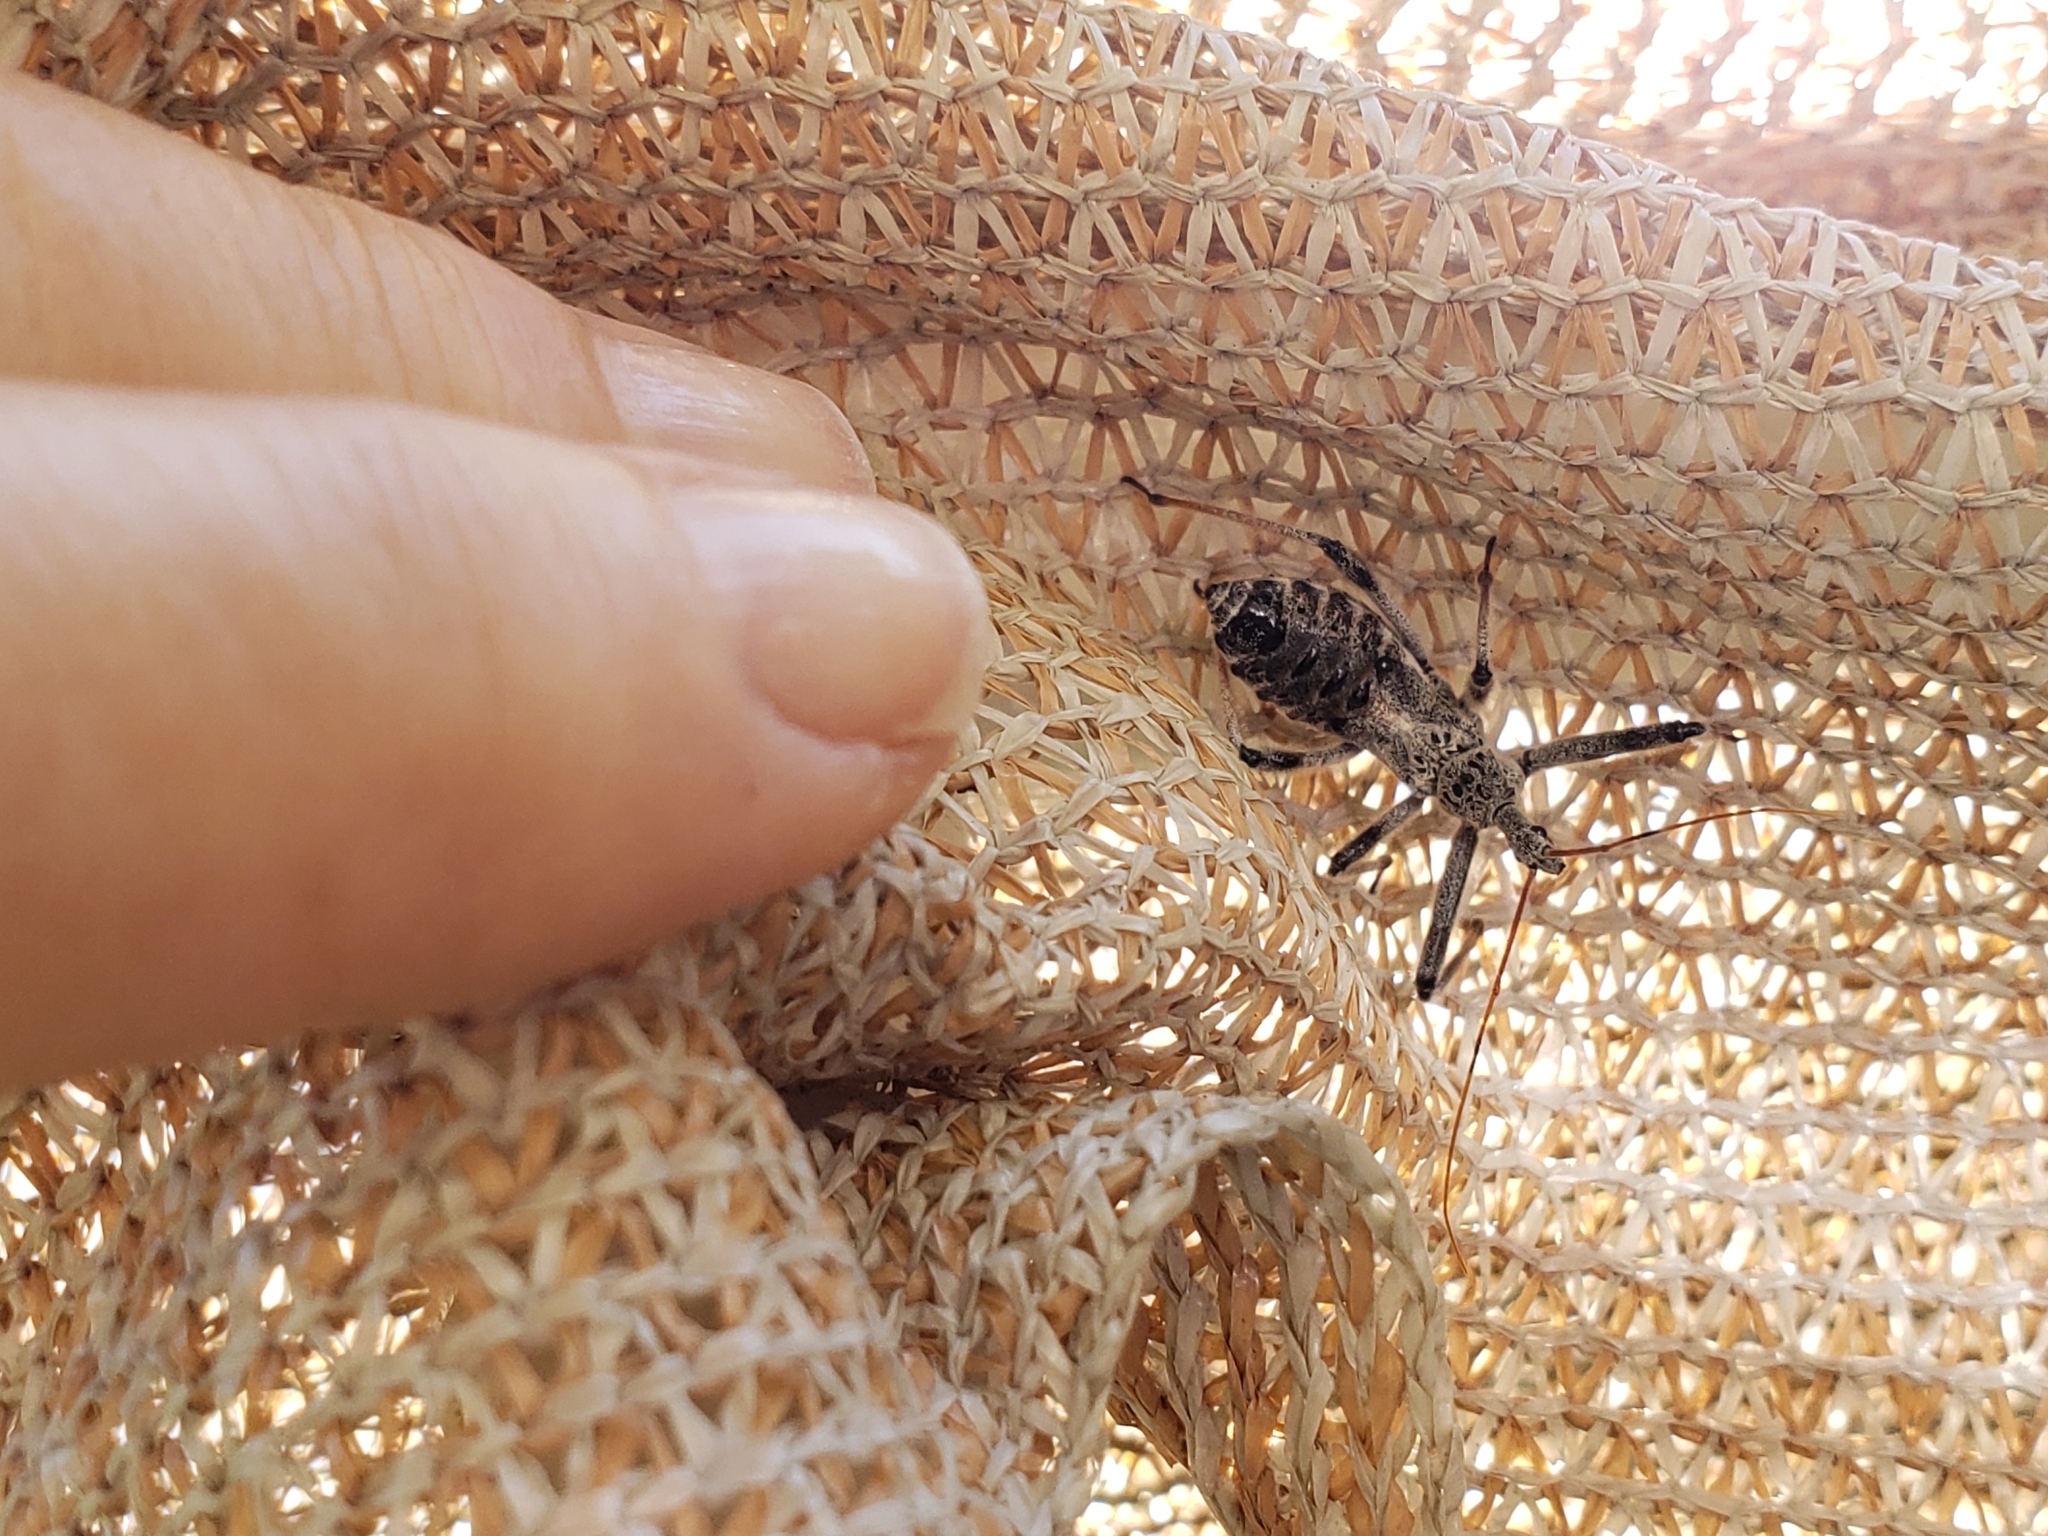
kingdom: Animalia
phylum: Arthropoda
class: Insecta
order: Hemiptera
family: Reduviidae
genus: Arilus
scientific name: Arilus cristatus
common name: North american wheel bug
